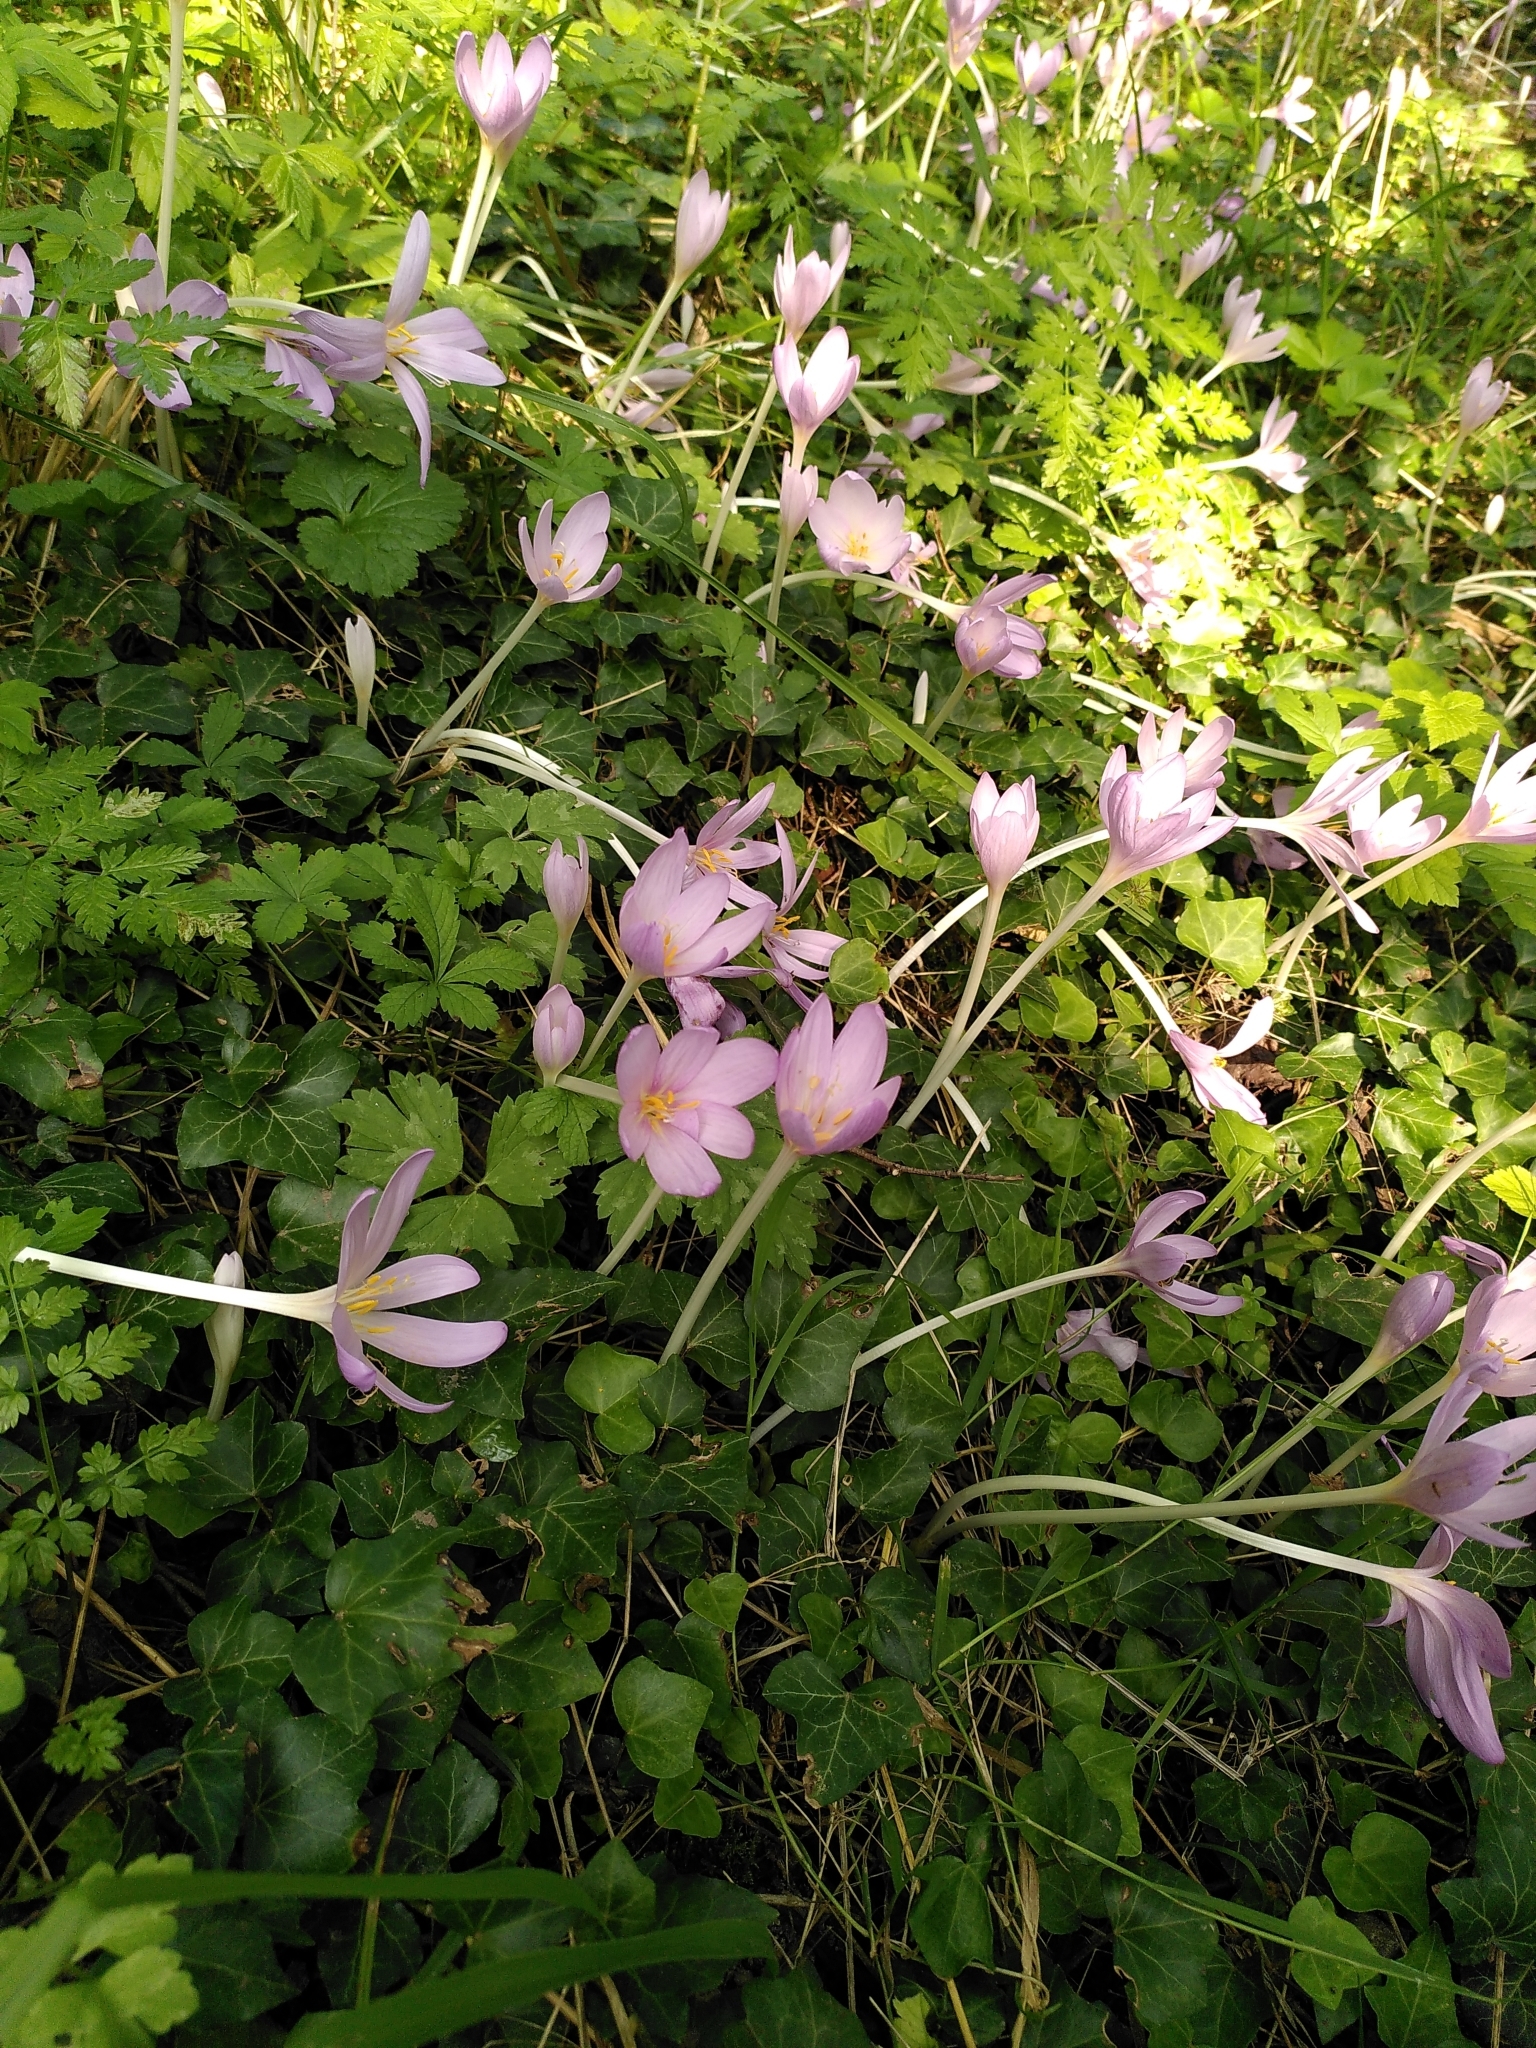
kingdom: Plantae
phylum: Tracheophyta
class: Liliopsida
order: Liliales
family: Colchicaceae
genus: Colchicum
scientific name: Colchicum autumnale
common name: Autumn crocus
